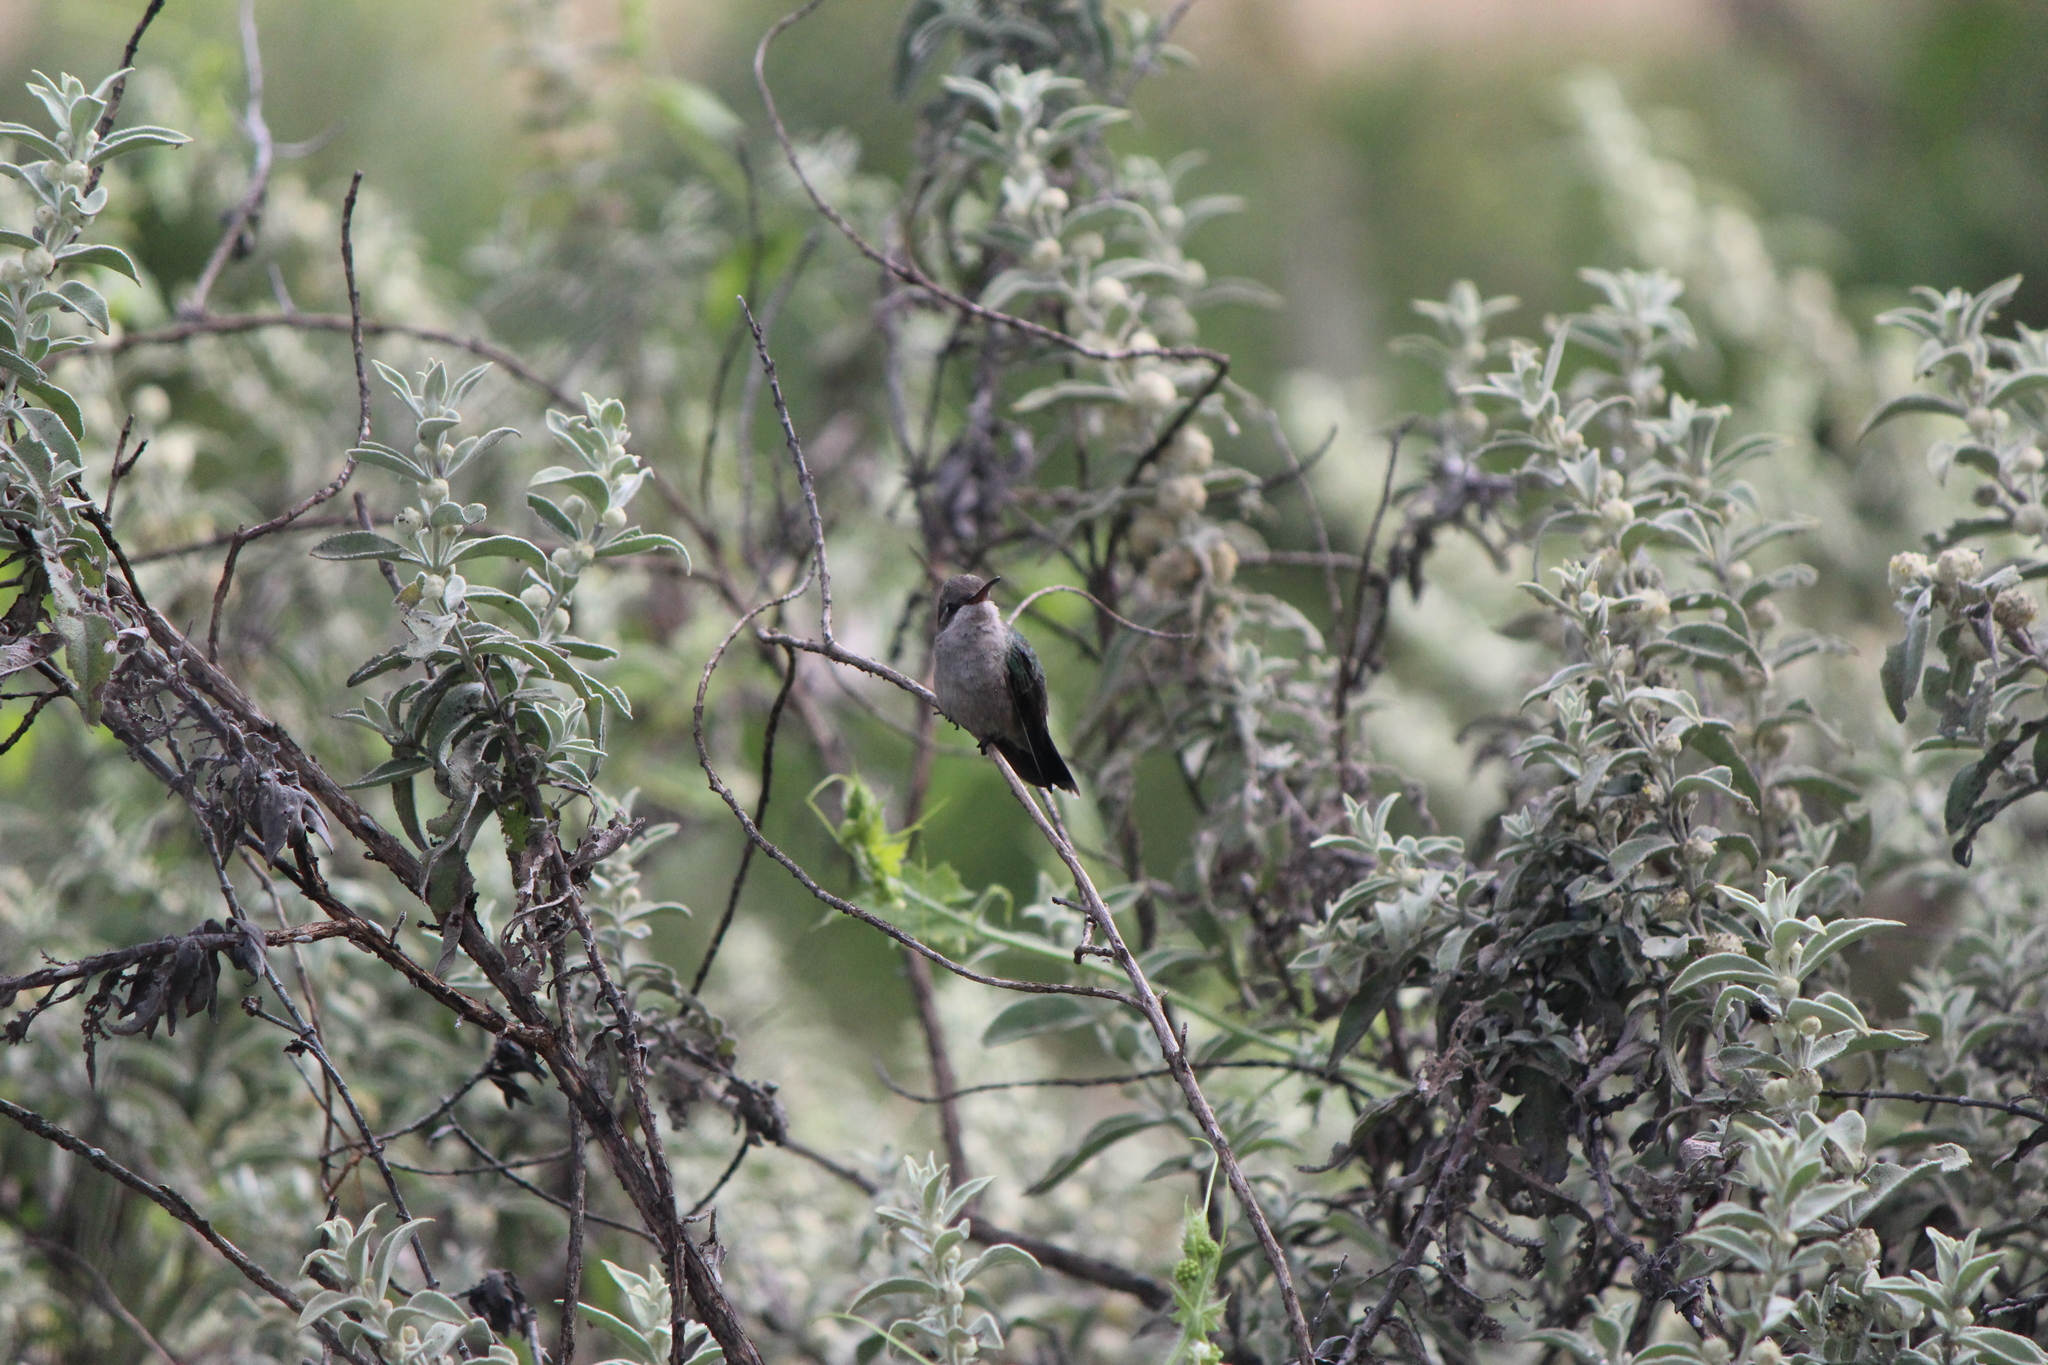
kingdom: Animalia
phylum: Chordata
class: Aves
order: Apodiformes
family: Trochilidae
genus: Cynanthus
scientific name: Cynanthus latirostris
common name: Broad-billed hummingbird
